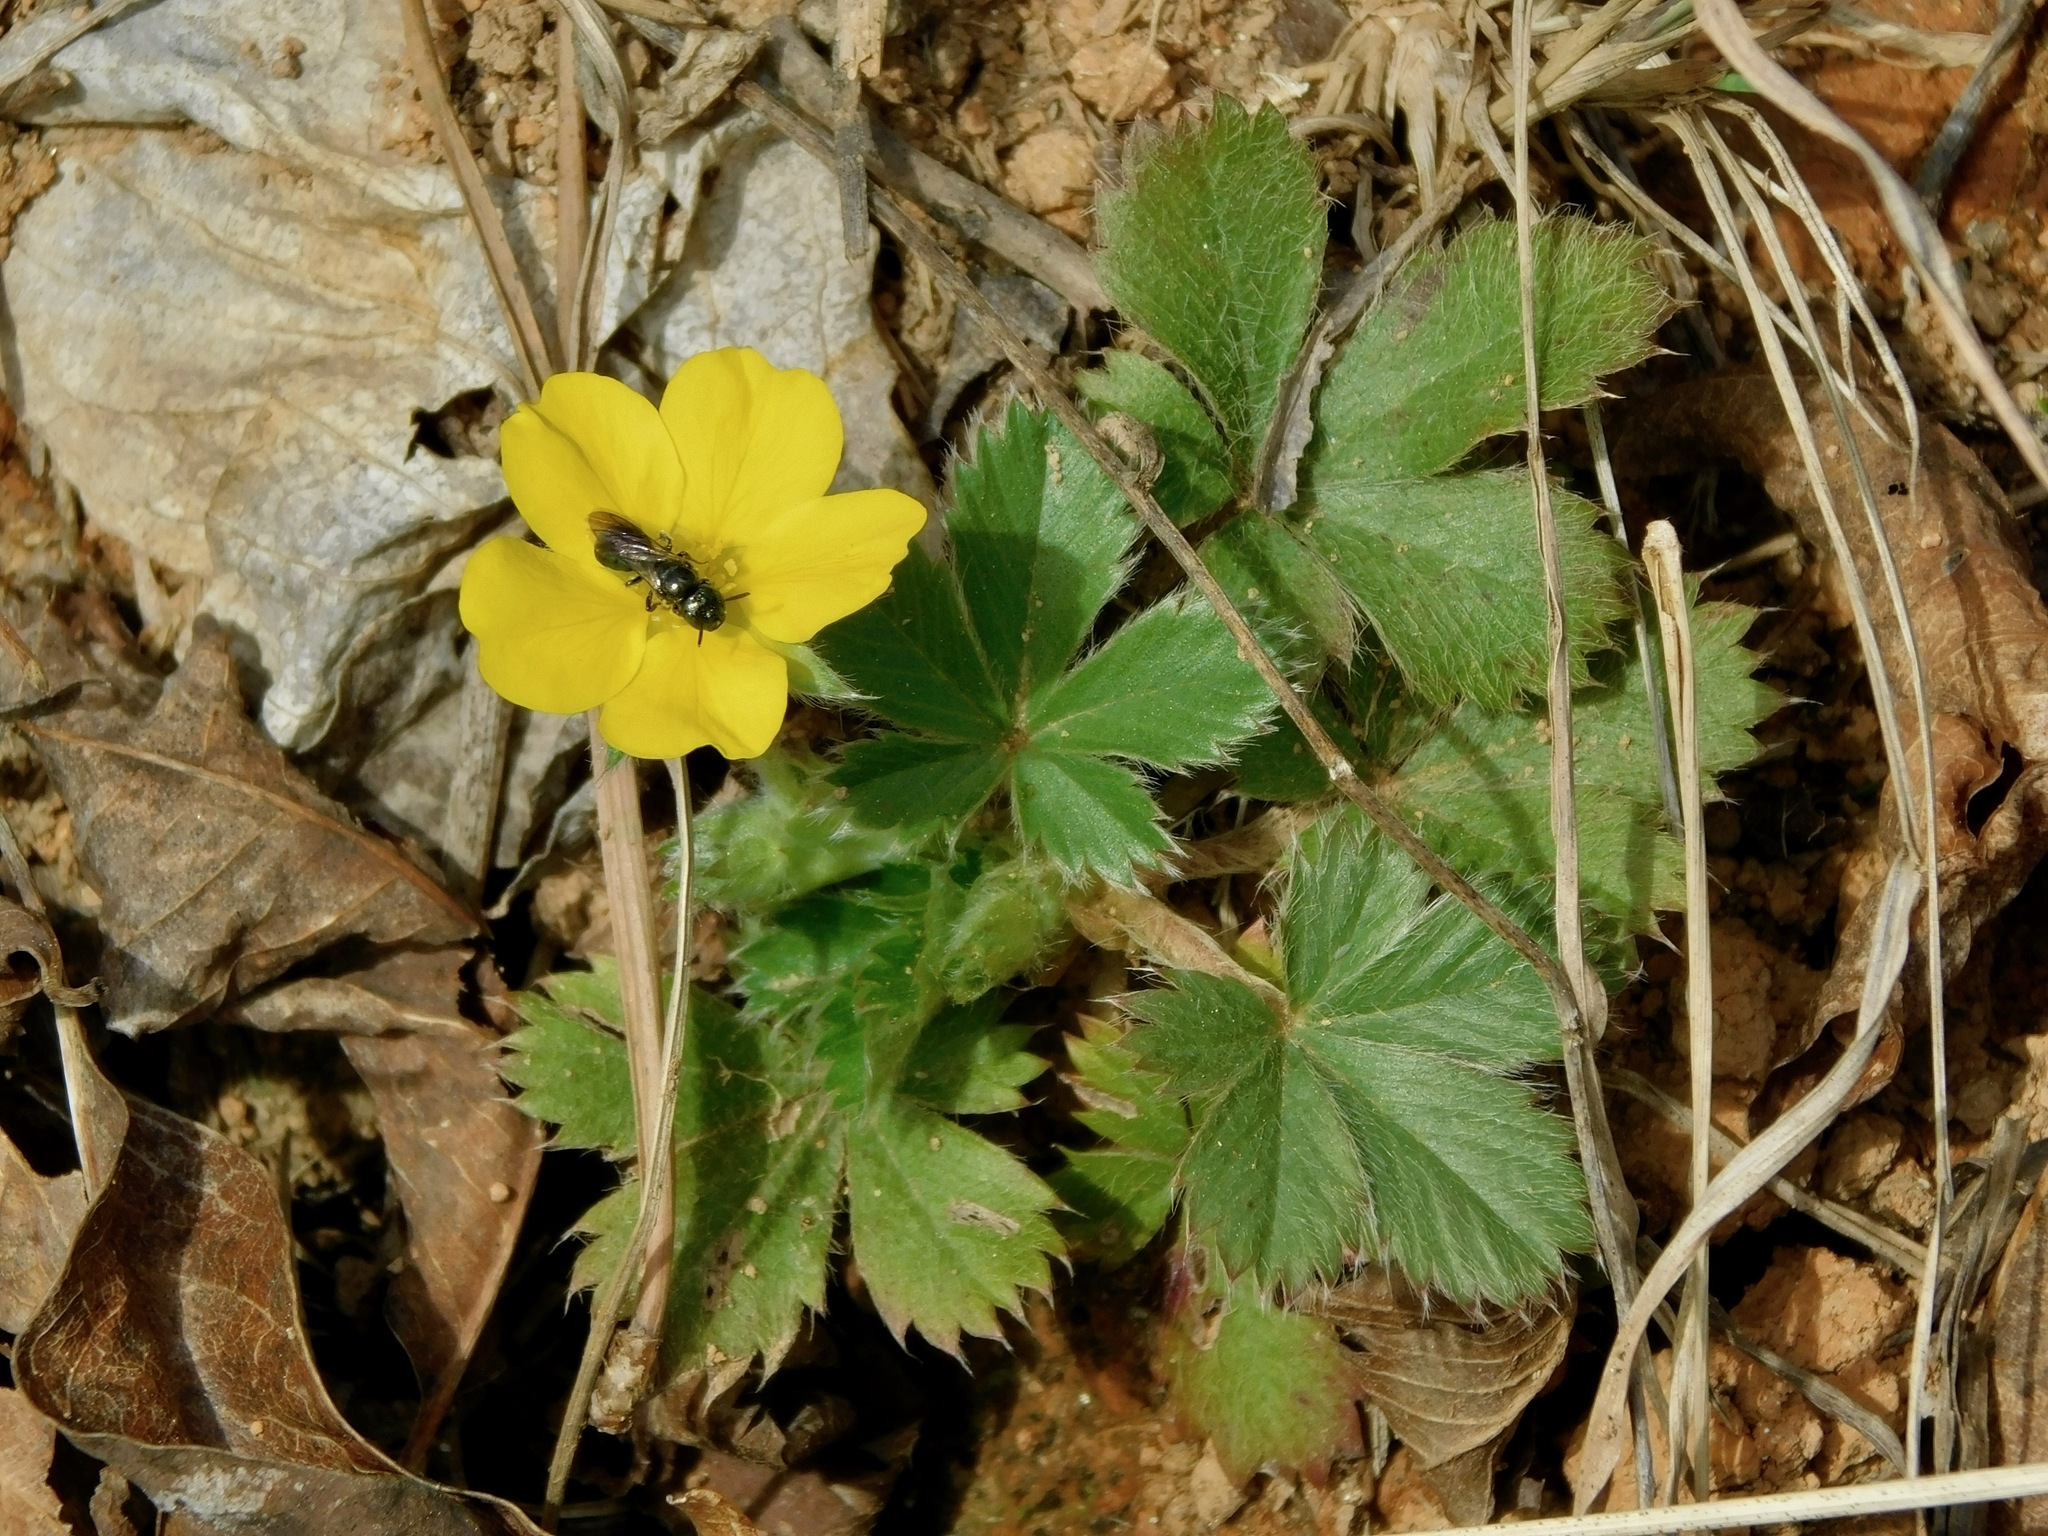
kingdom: Plantae
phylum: Tracheophyta
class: Magnoliopsida
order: Rosales
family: Rosaceae
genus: Potentilla
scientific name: Potentilla canadensis
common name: Canada cinquefoil
